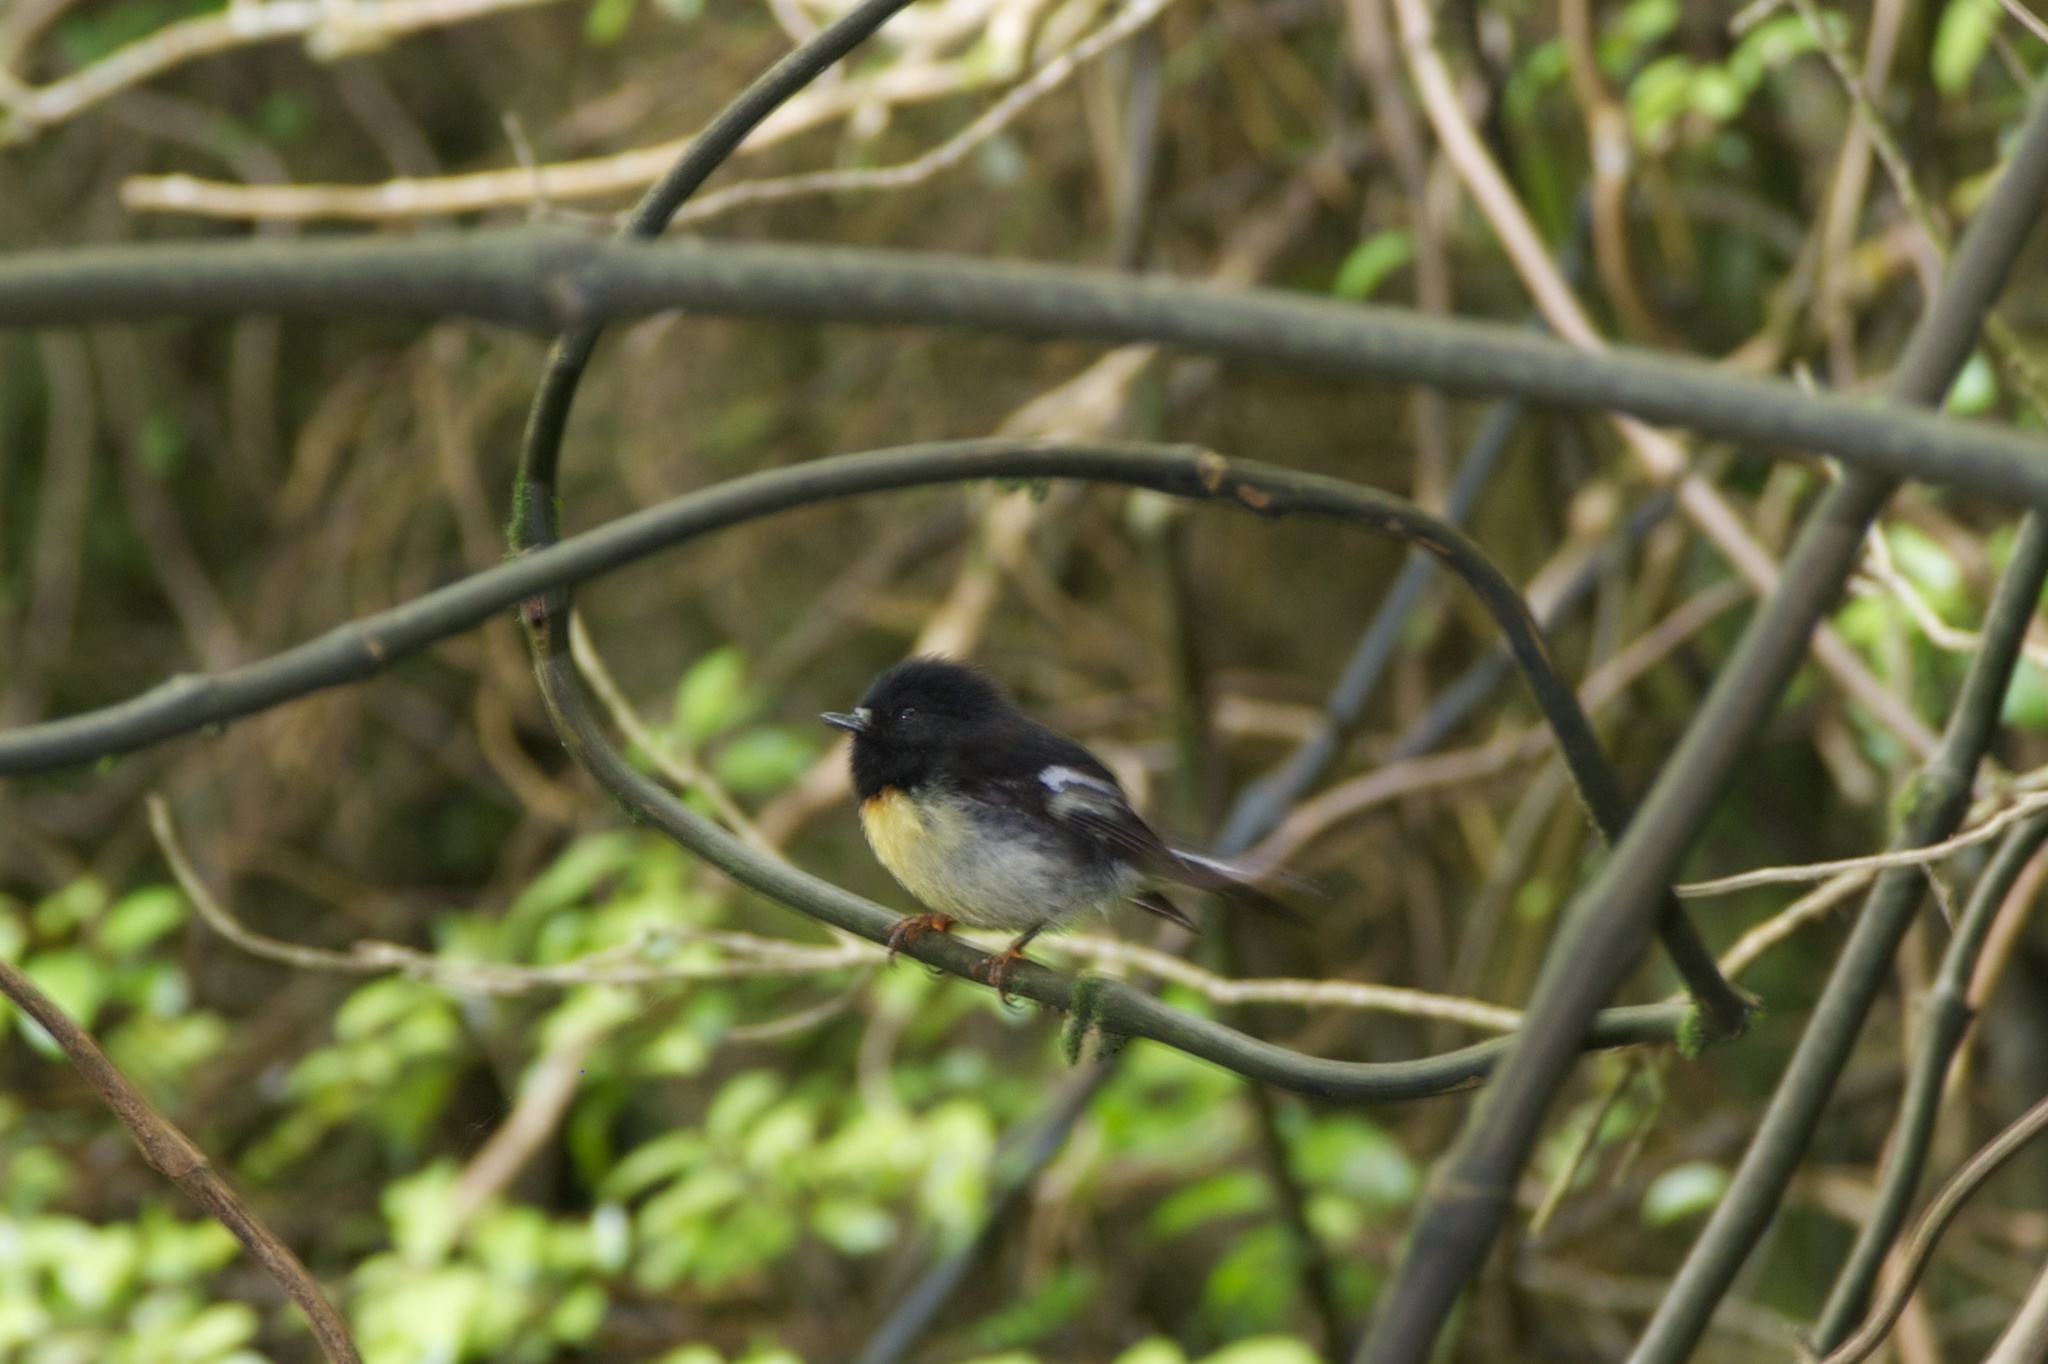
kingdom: Animalia
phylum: Chordata
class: Aves
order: Passeriformes
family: Petroicidae
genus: Petroica
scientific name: Petroica macrocephala
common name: Tomtit
